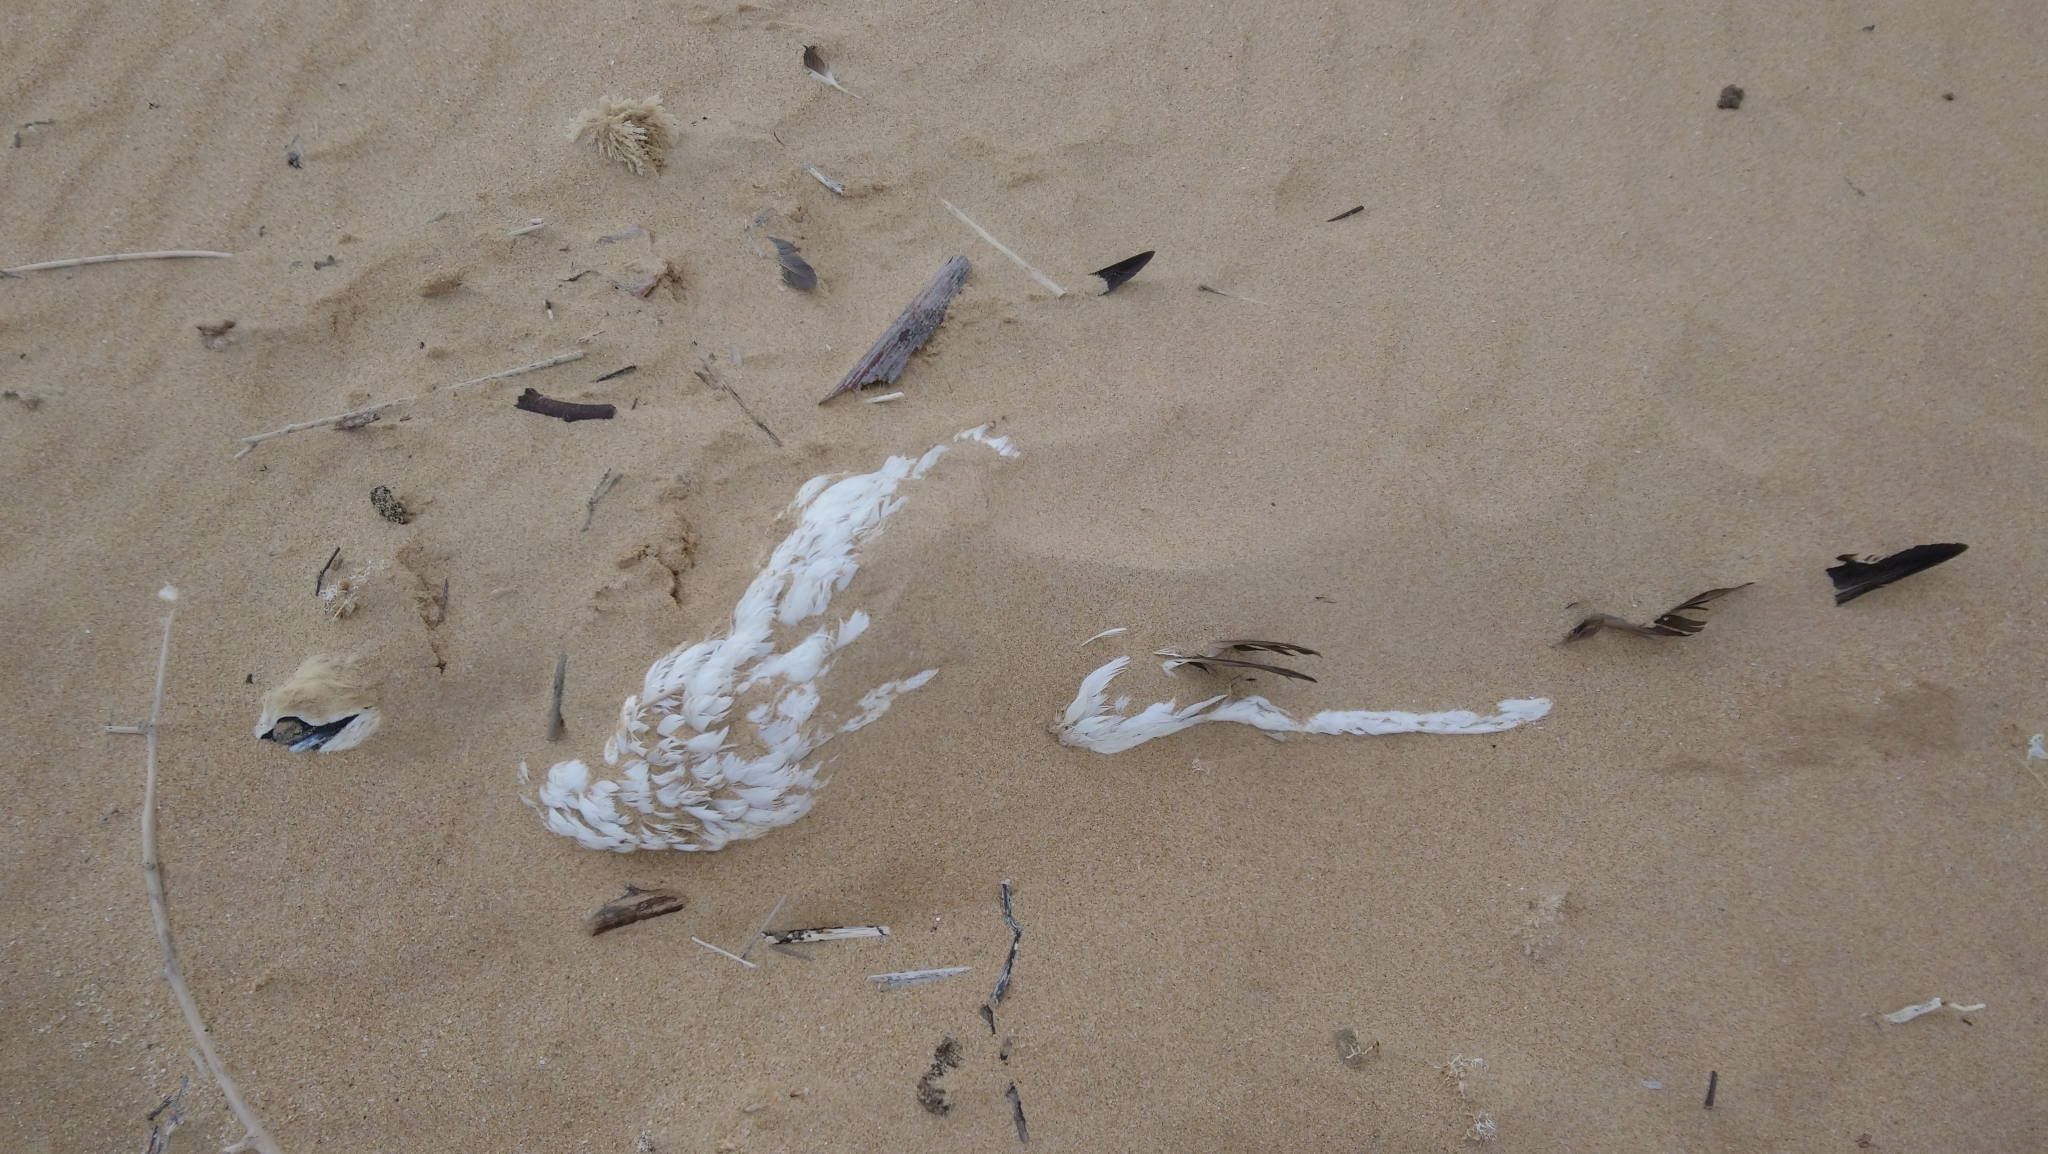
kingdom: Animalia
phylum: Chordata
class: Aves
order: Suliformes
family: Sulidae
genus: Morus
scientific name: Morus capensis
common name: Cape gannet
